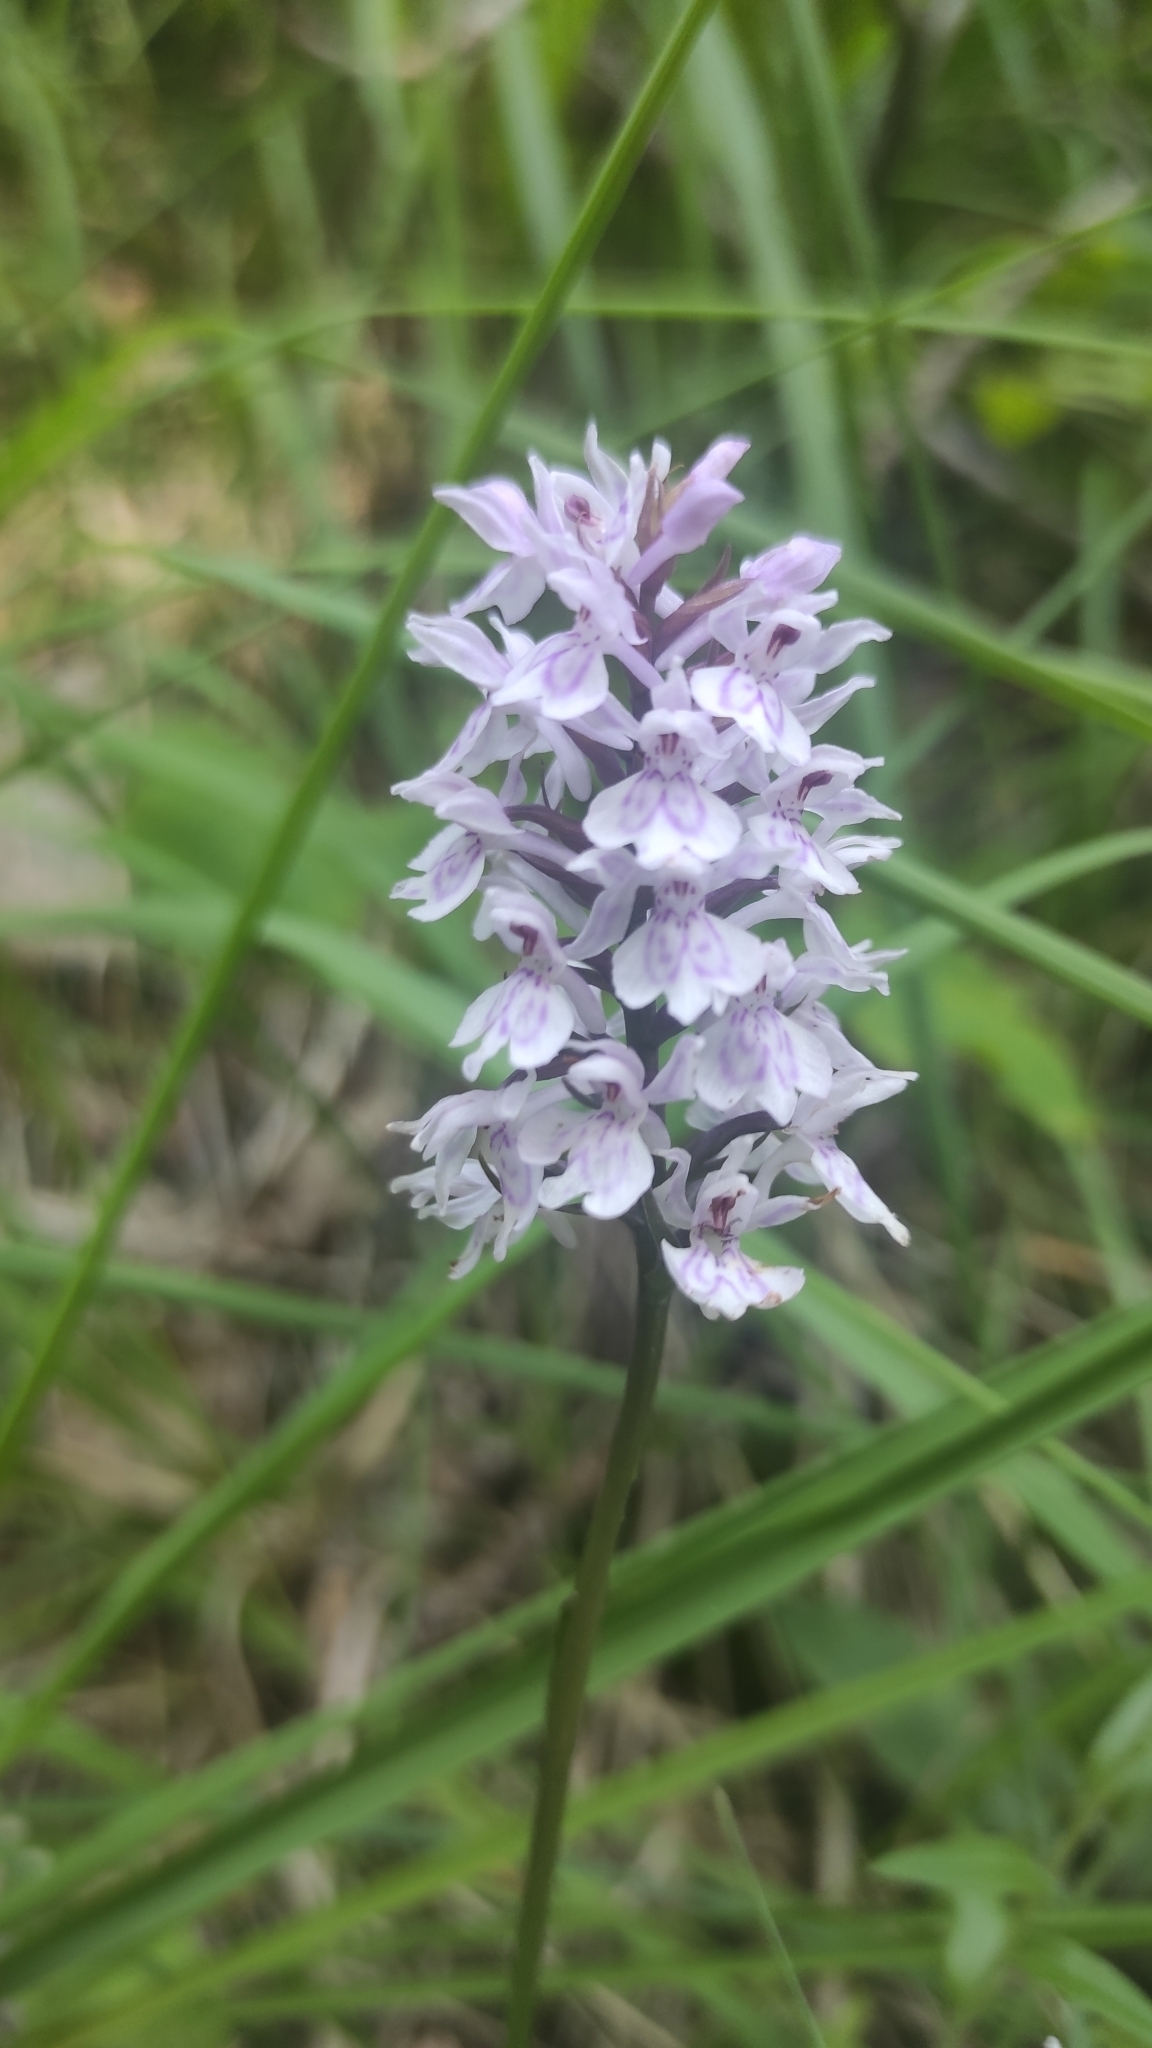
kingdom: Plantae
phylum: Tracheophyta
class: Liliopsida
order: Asparagales
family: Orchidaceae
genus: Dactylorhiza
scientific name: Dactylorhiza maculata
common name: Heath spotted-orchid
